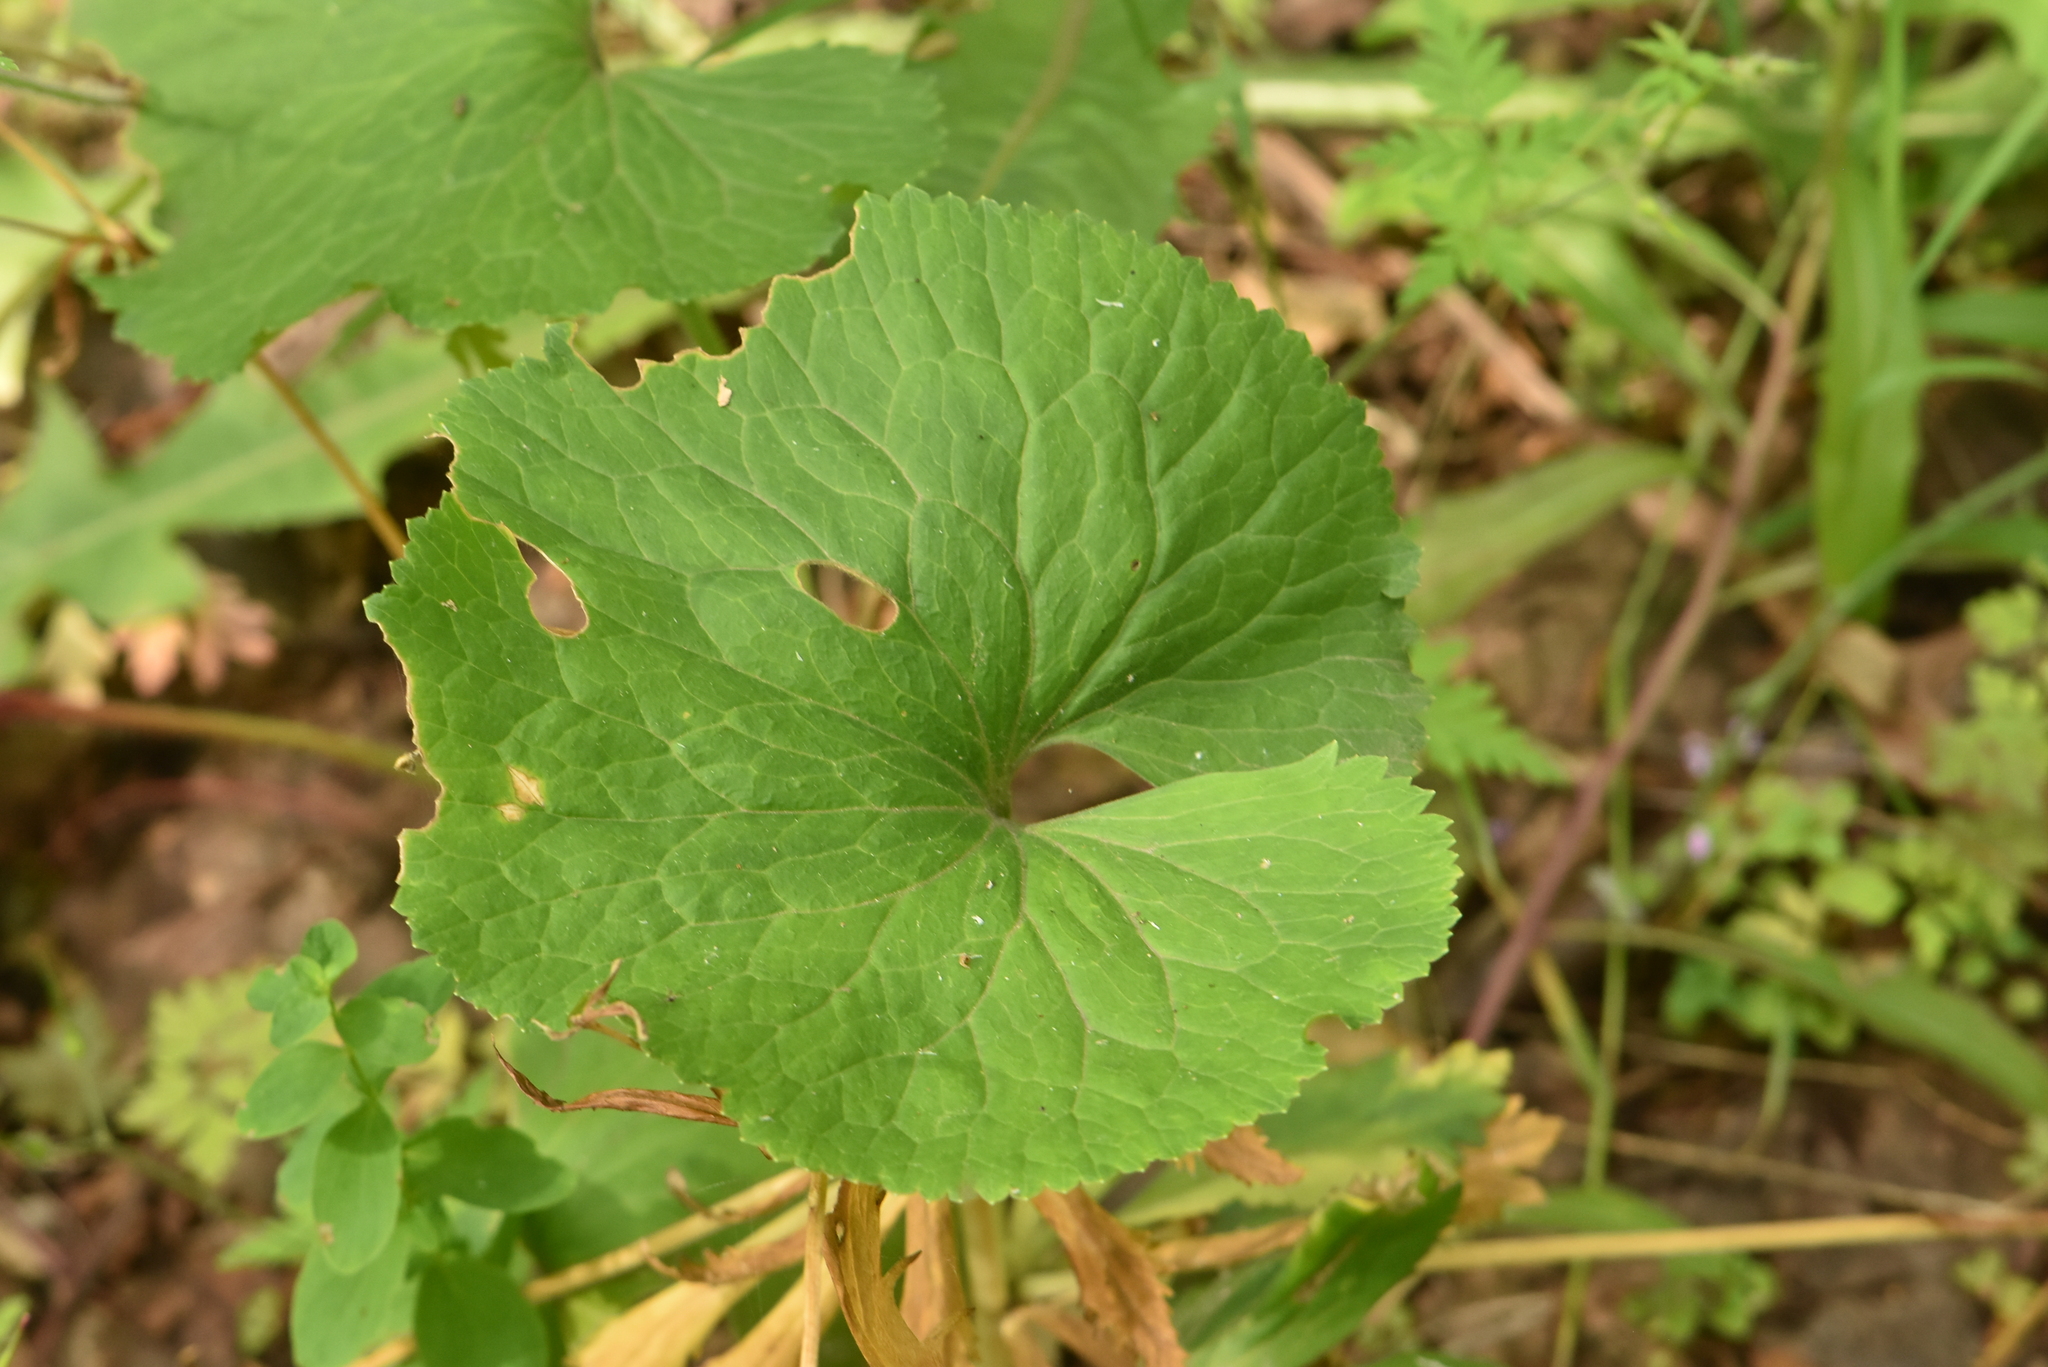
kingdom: Plantae
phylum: Tracheophyta
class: Magnoliopsida
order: Ranunculales
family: Ranunculaceae
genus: Ranunculus
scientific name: Ranunculus cassubicus
